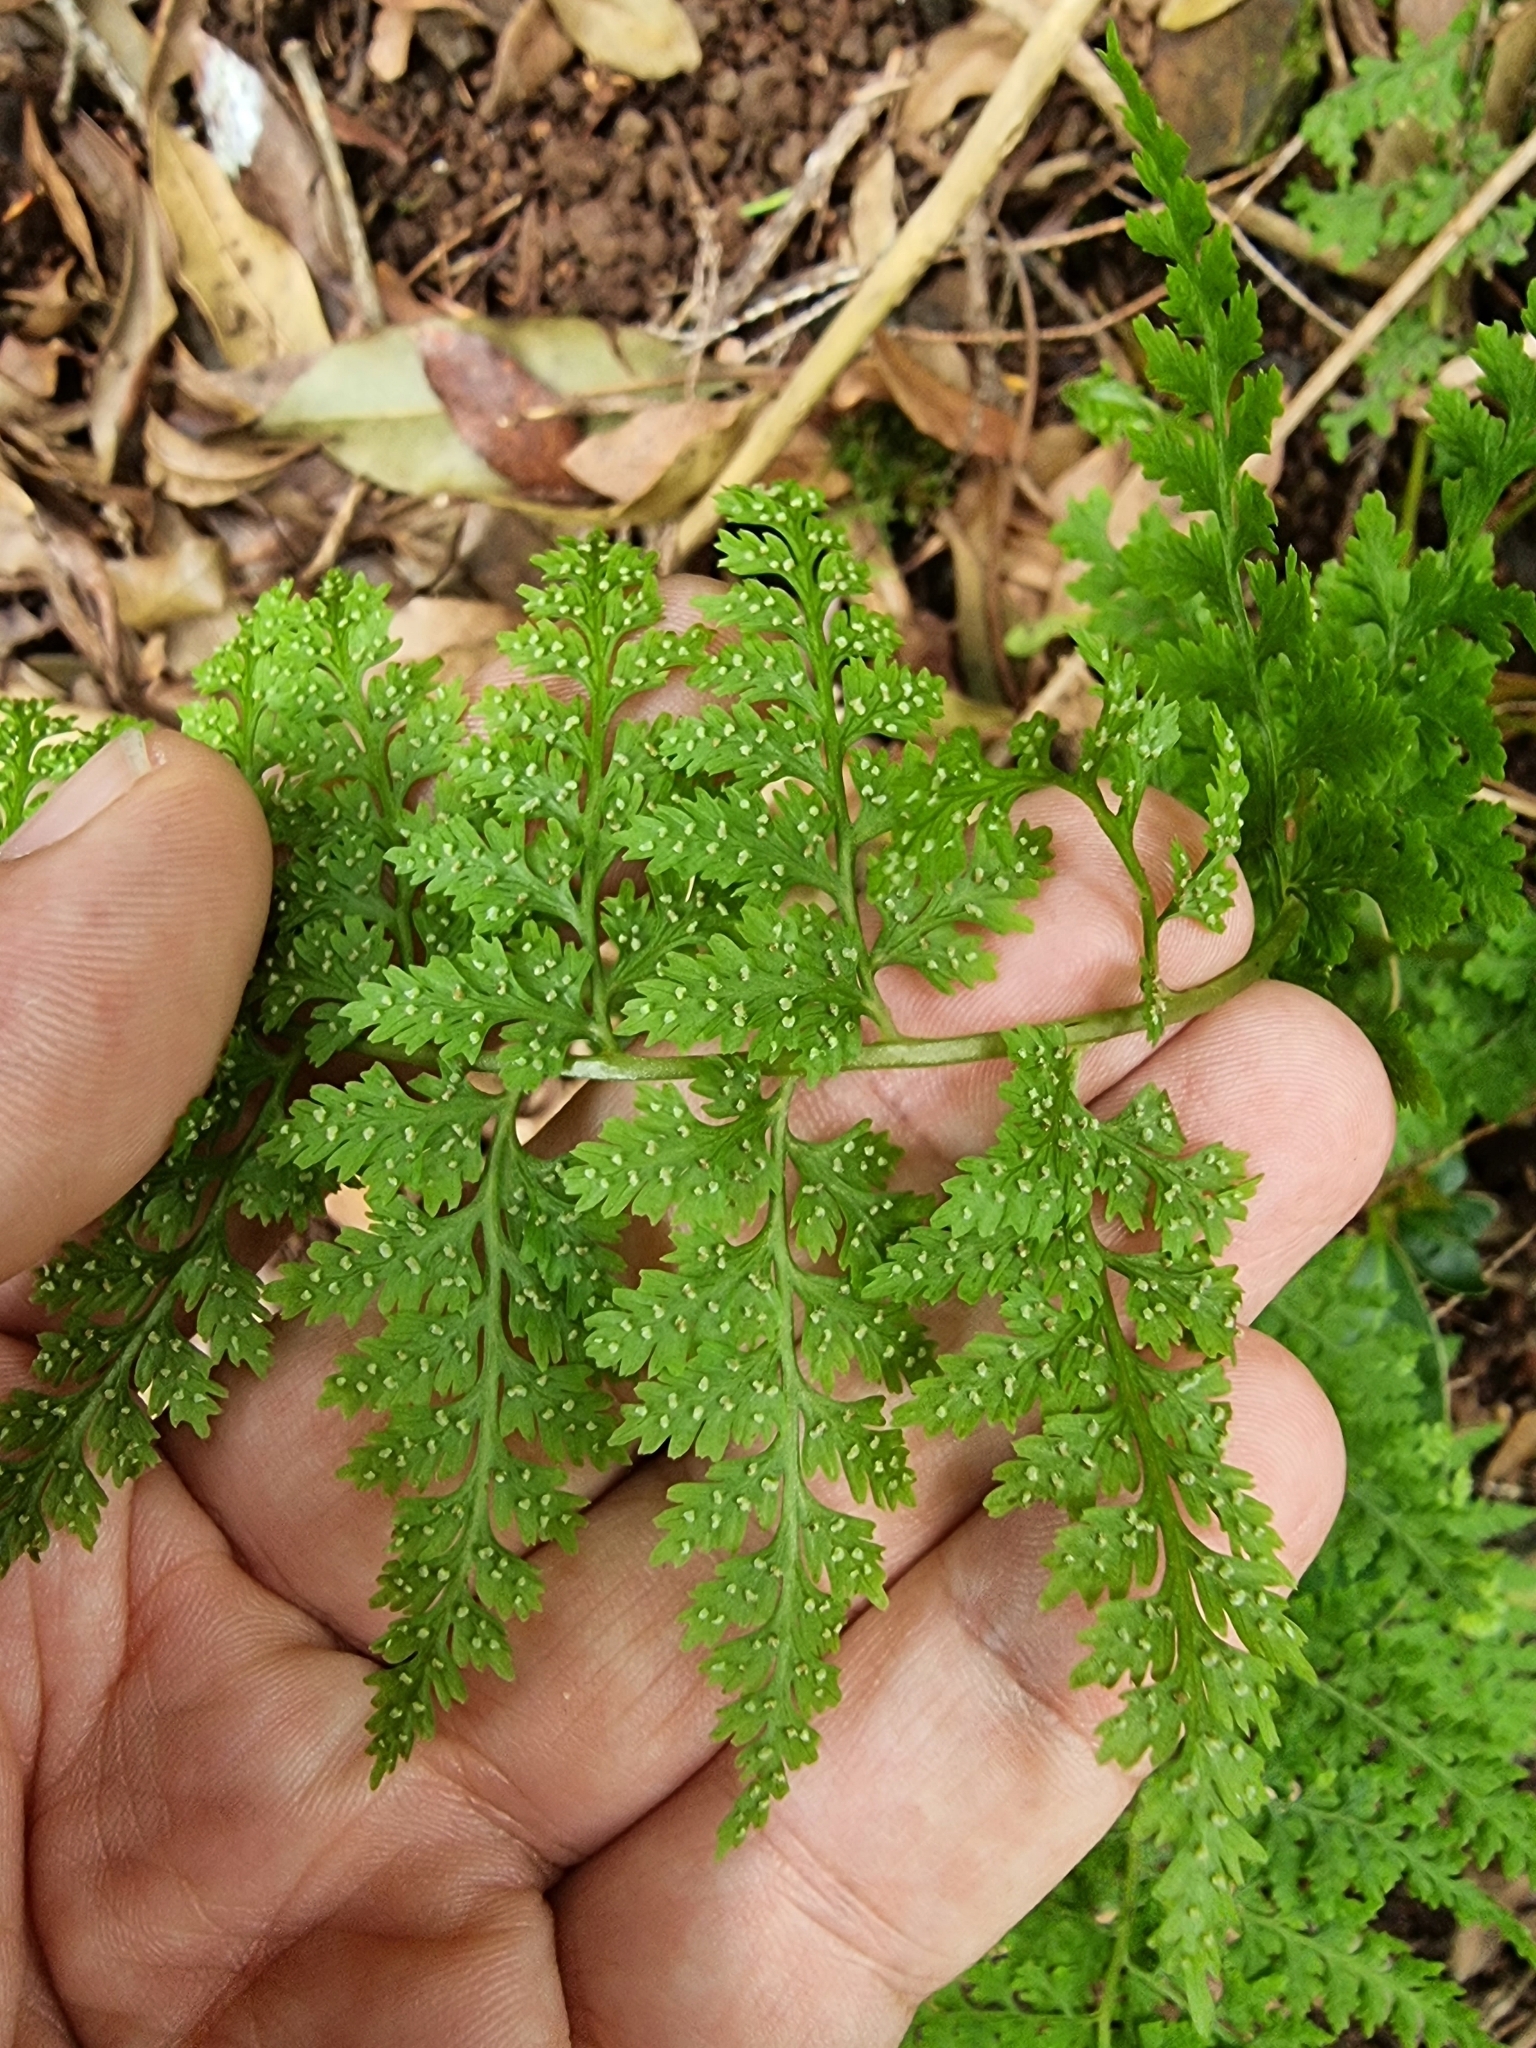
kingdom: Plantae
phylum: Tracheophyta
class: Polypodiopsida
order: Polypodiales
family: Cystopteridaceae
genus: Cystopteris
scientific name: Cystopteris diaphana
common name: Greenish bladder-fern
